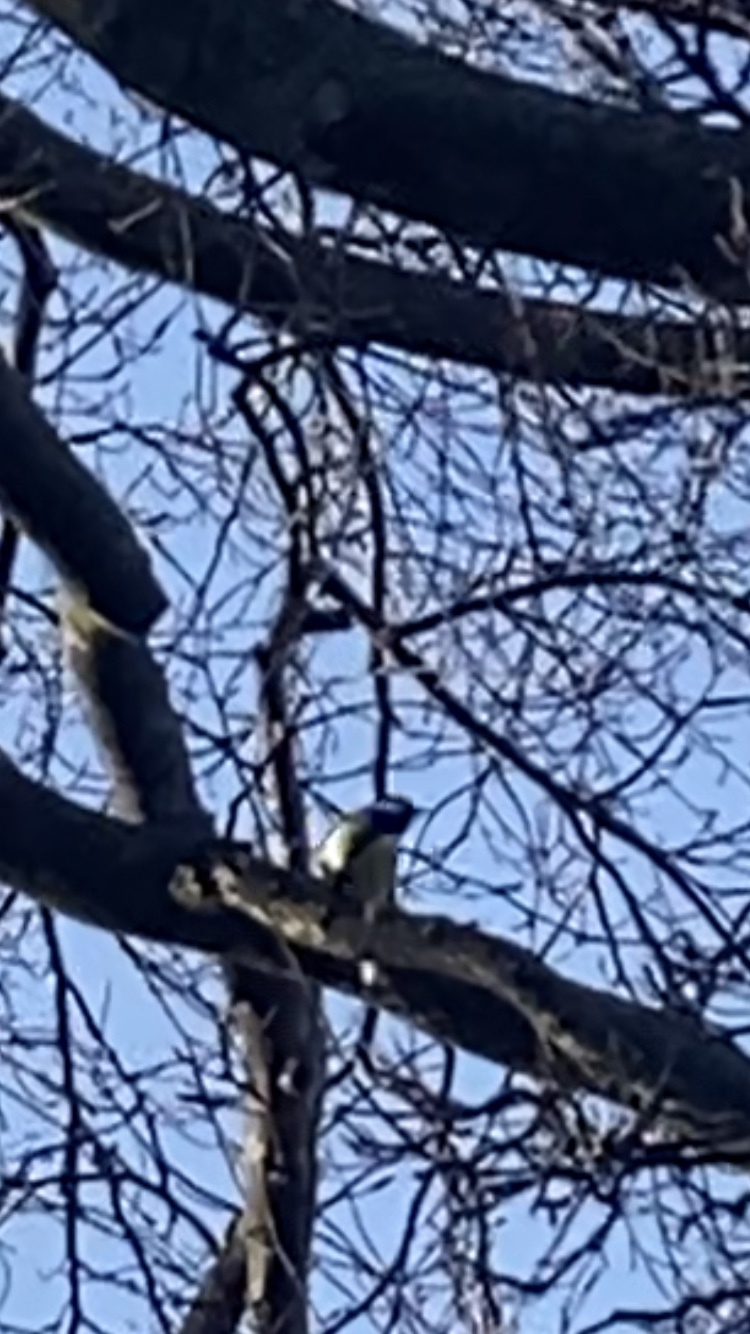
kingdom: Animalia
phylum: Chordata
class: Aves
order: Passeriformes
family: Paridae
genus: Parus
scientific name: Parus major
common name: Great tit
